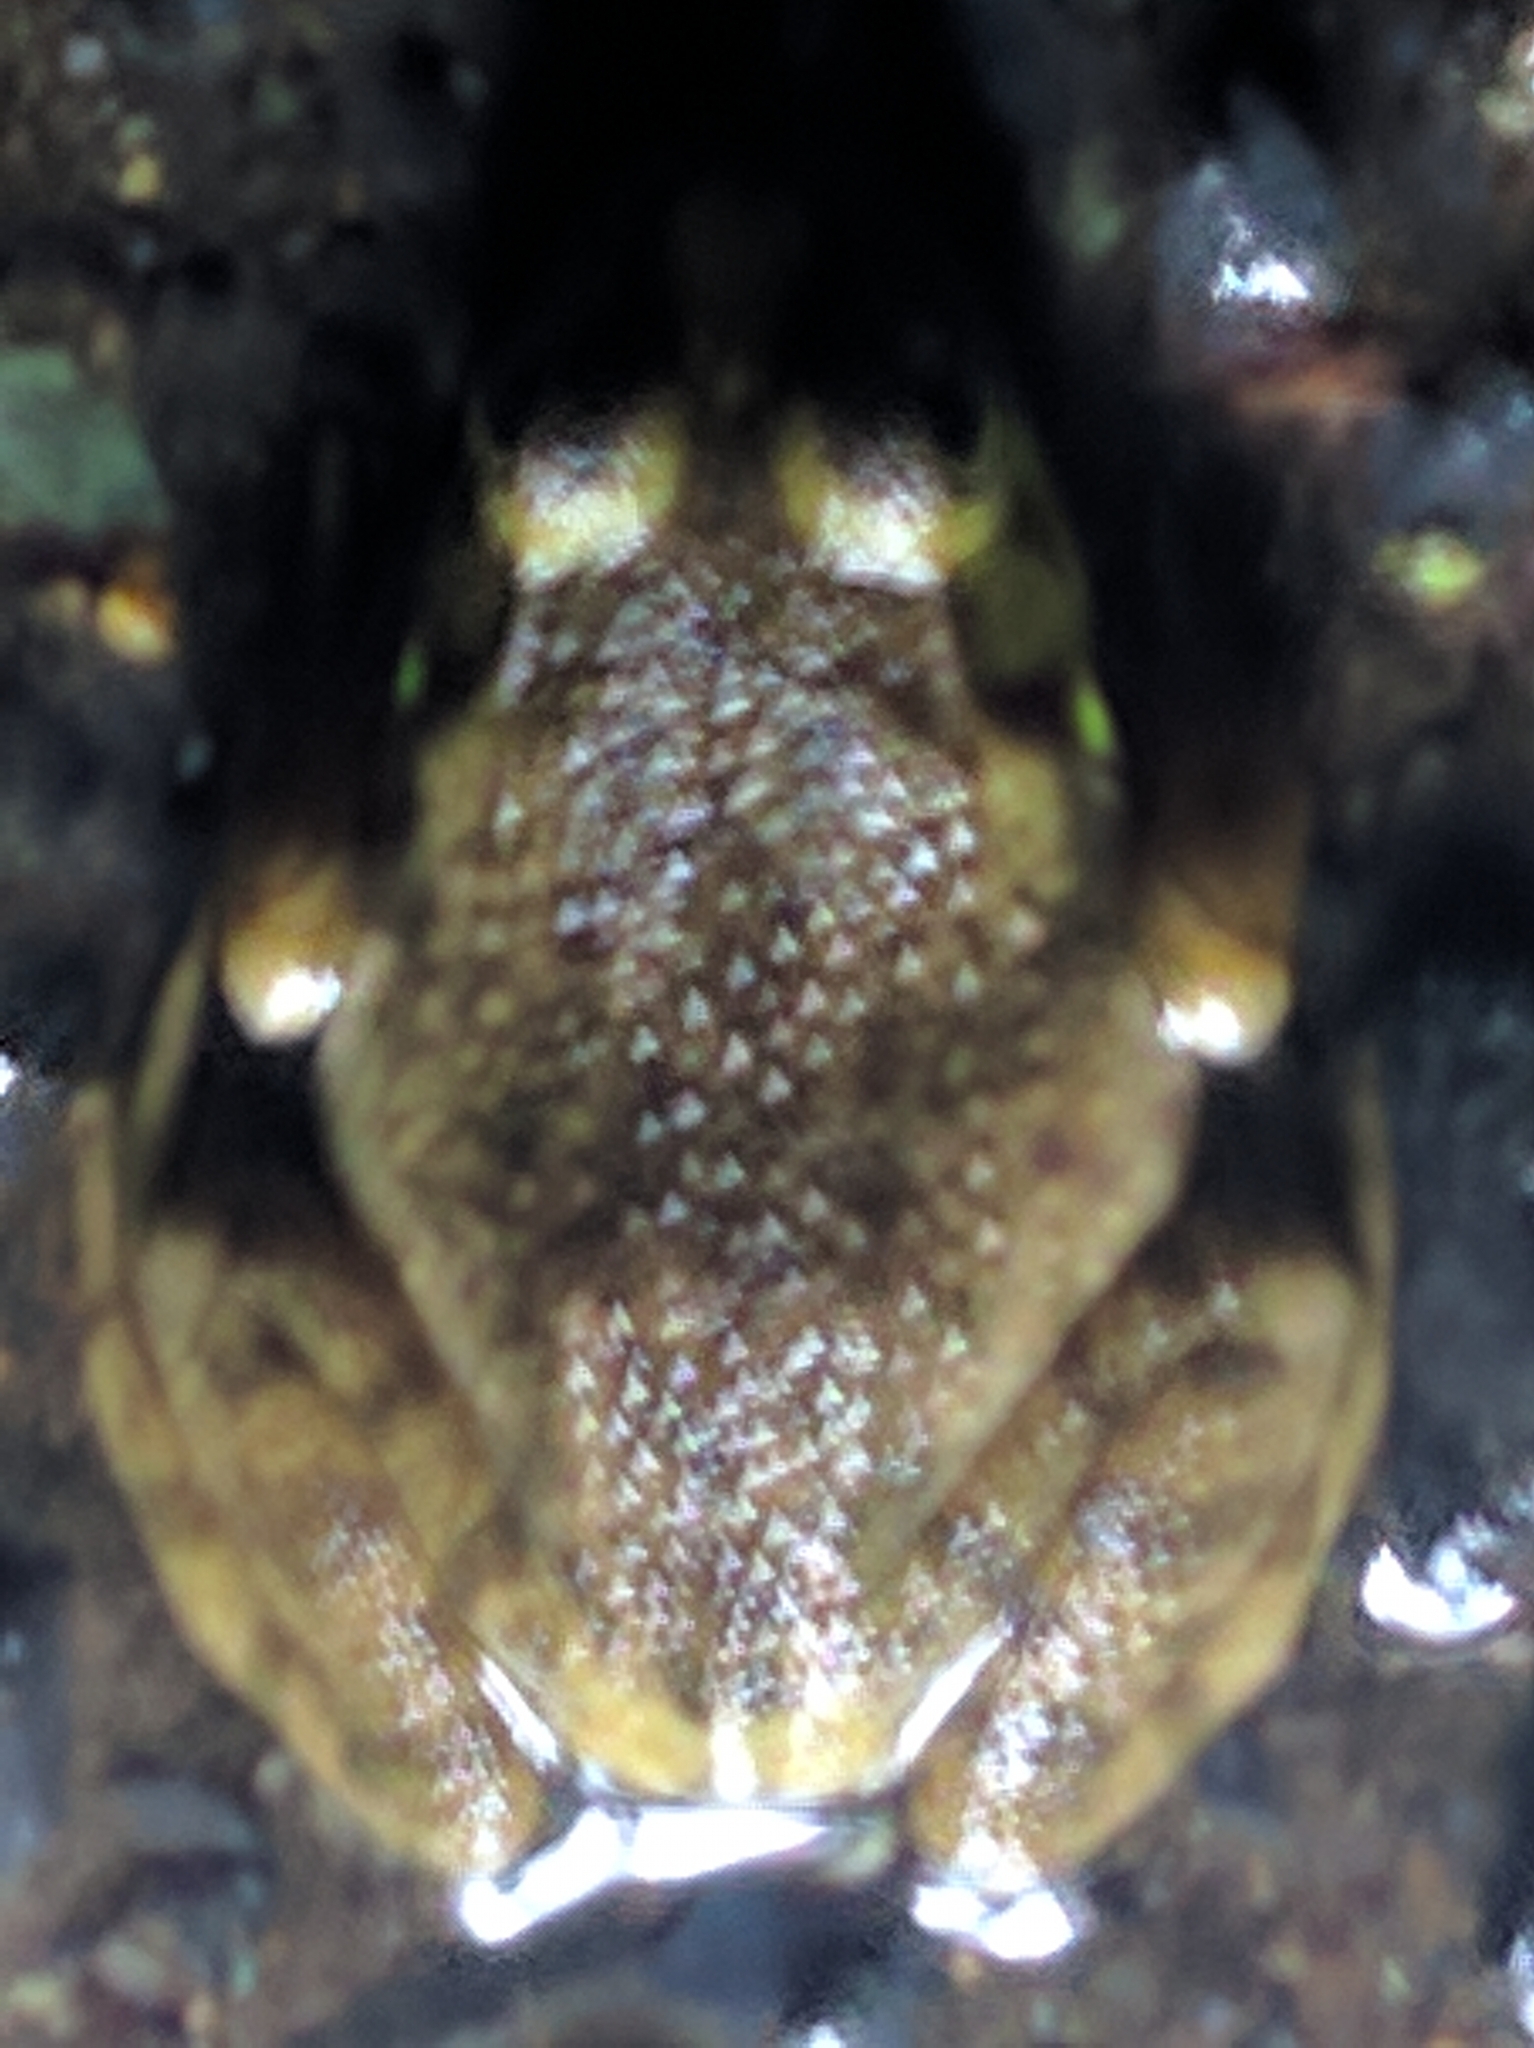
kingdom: Animalia
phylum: Chordata
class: Amphibia
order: Anura
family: Ranidae
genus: Lithobates
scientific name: Lithobates catesbeianus
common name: American bullfrog
